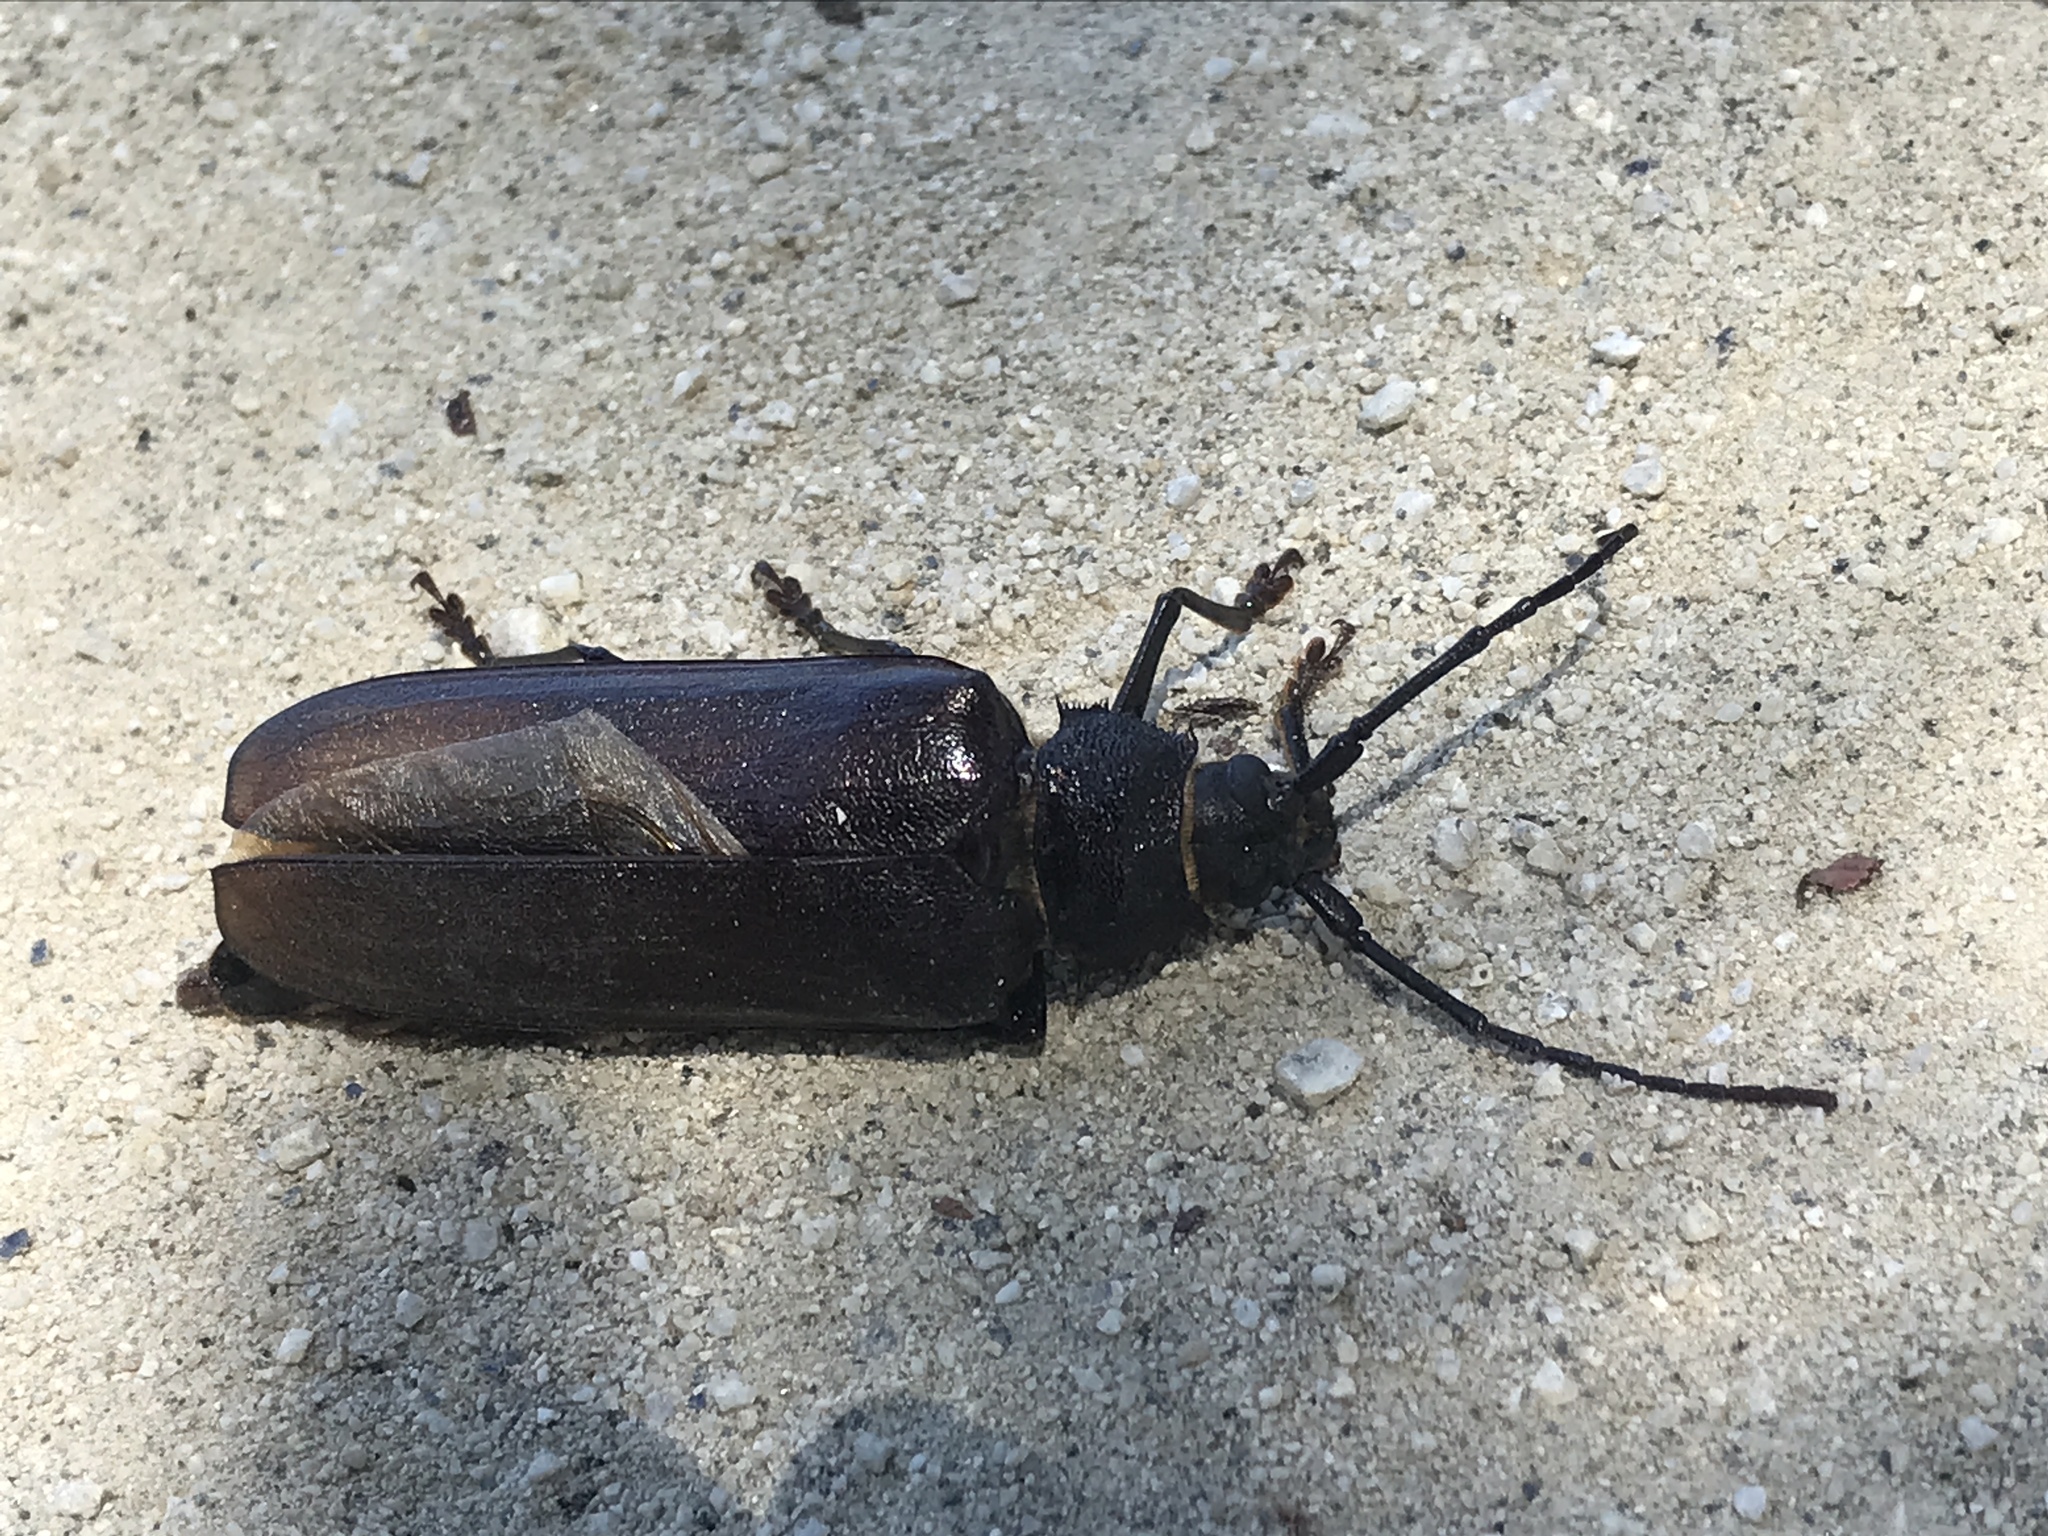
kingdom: Animalia
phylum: Arthropoda
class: Insecta
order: Coleoptera
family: Cerambycidae
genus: Trichocnemis
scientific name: Trichocnemis spiculatus
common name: Long-horned beetle
